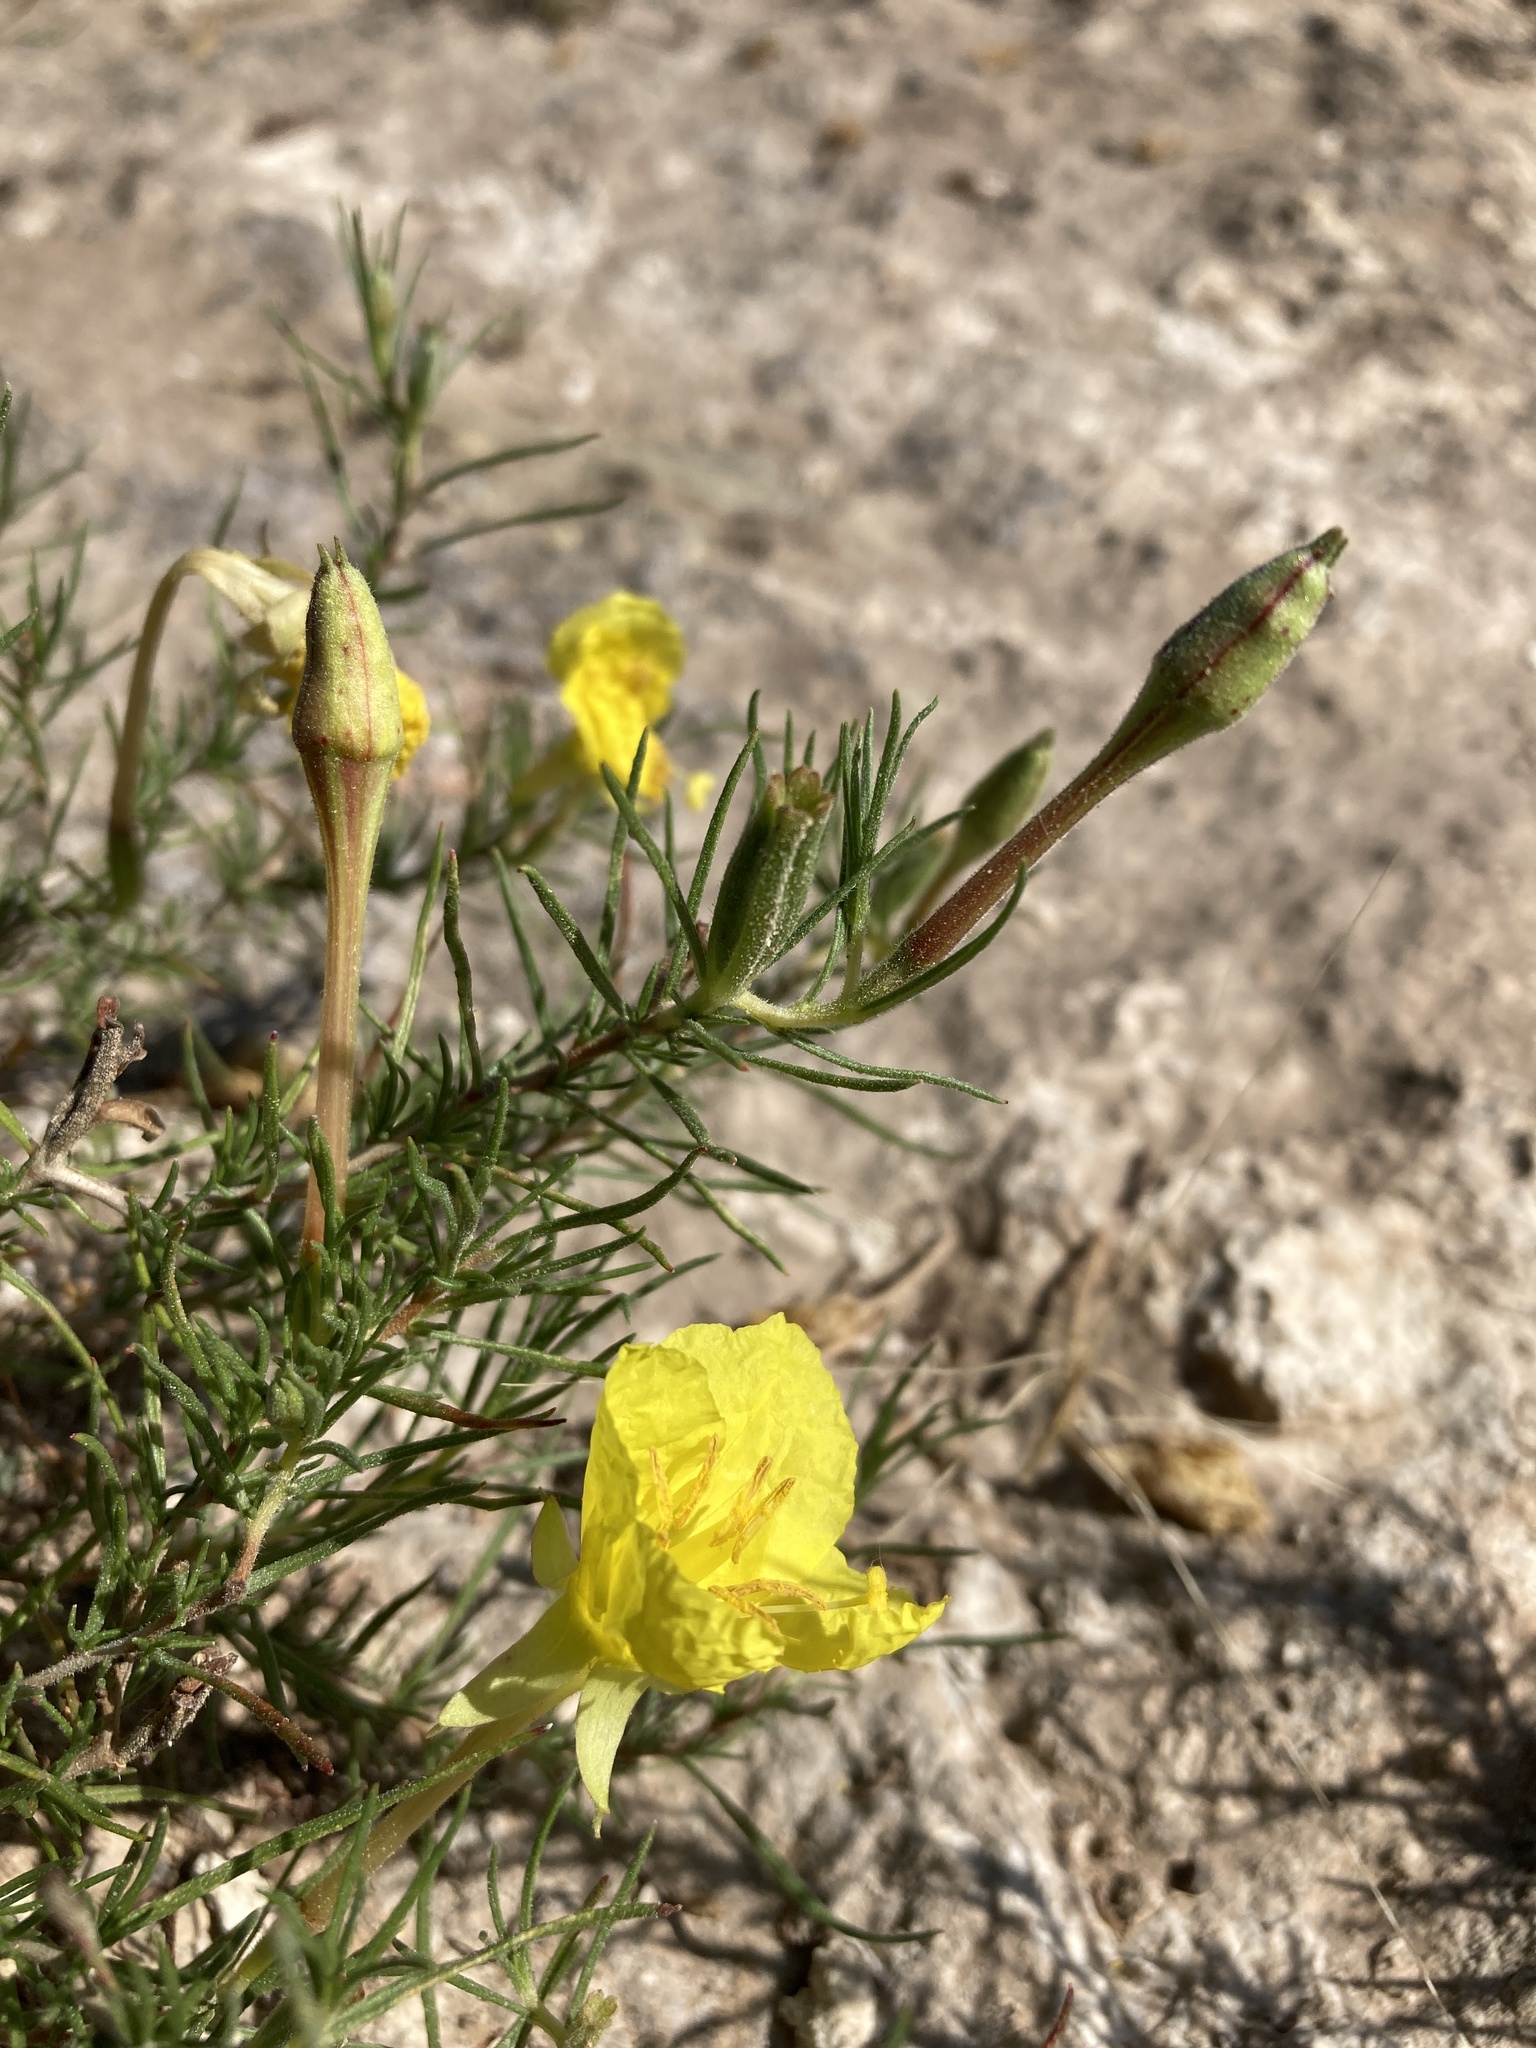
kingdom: Plantae
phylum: Tracheophyta
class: Magnoliopsida
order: Myrtales
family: Onagraceae
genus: Oenothera
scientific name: Oenothera hartwegii
